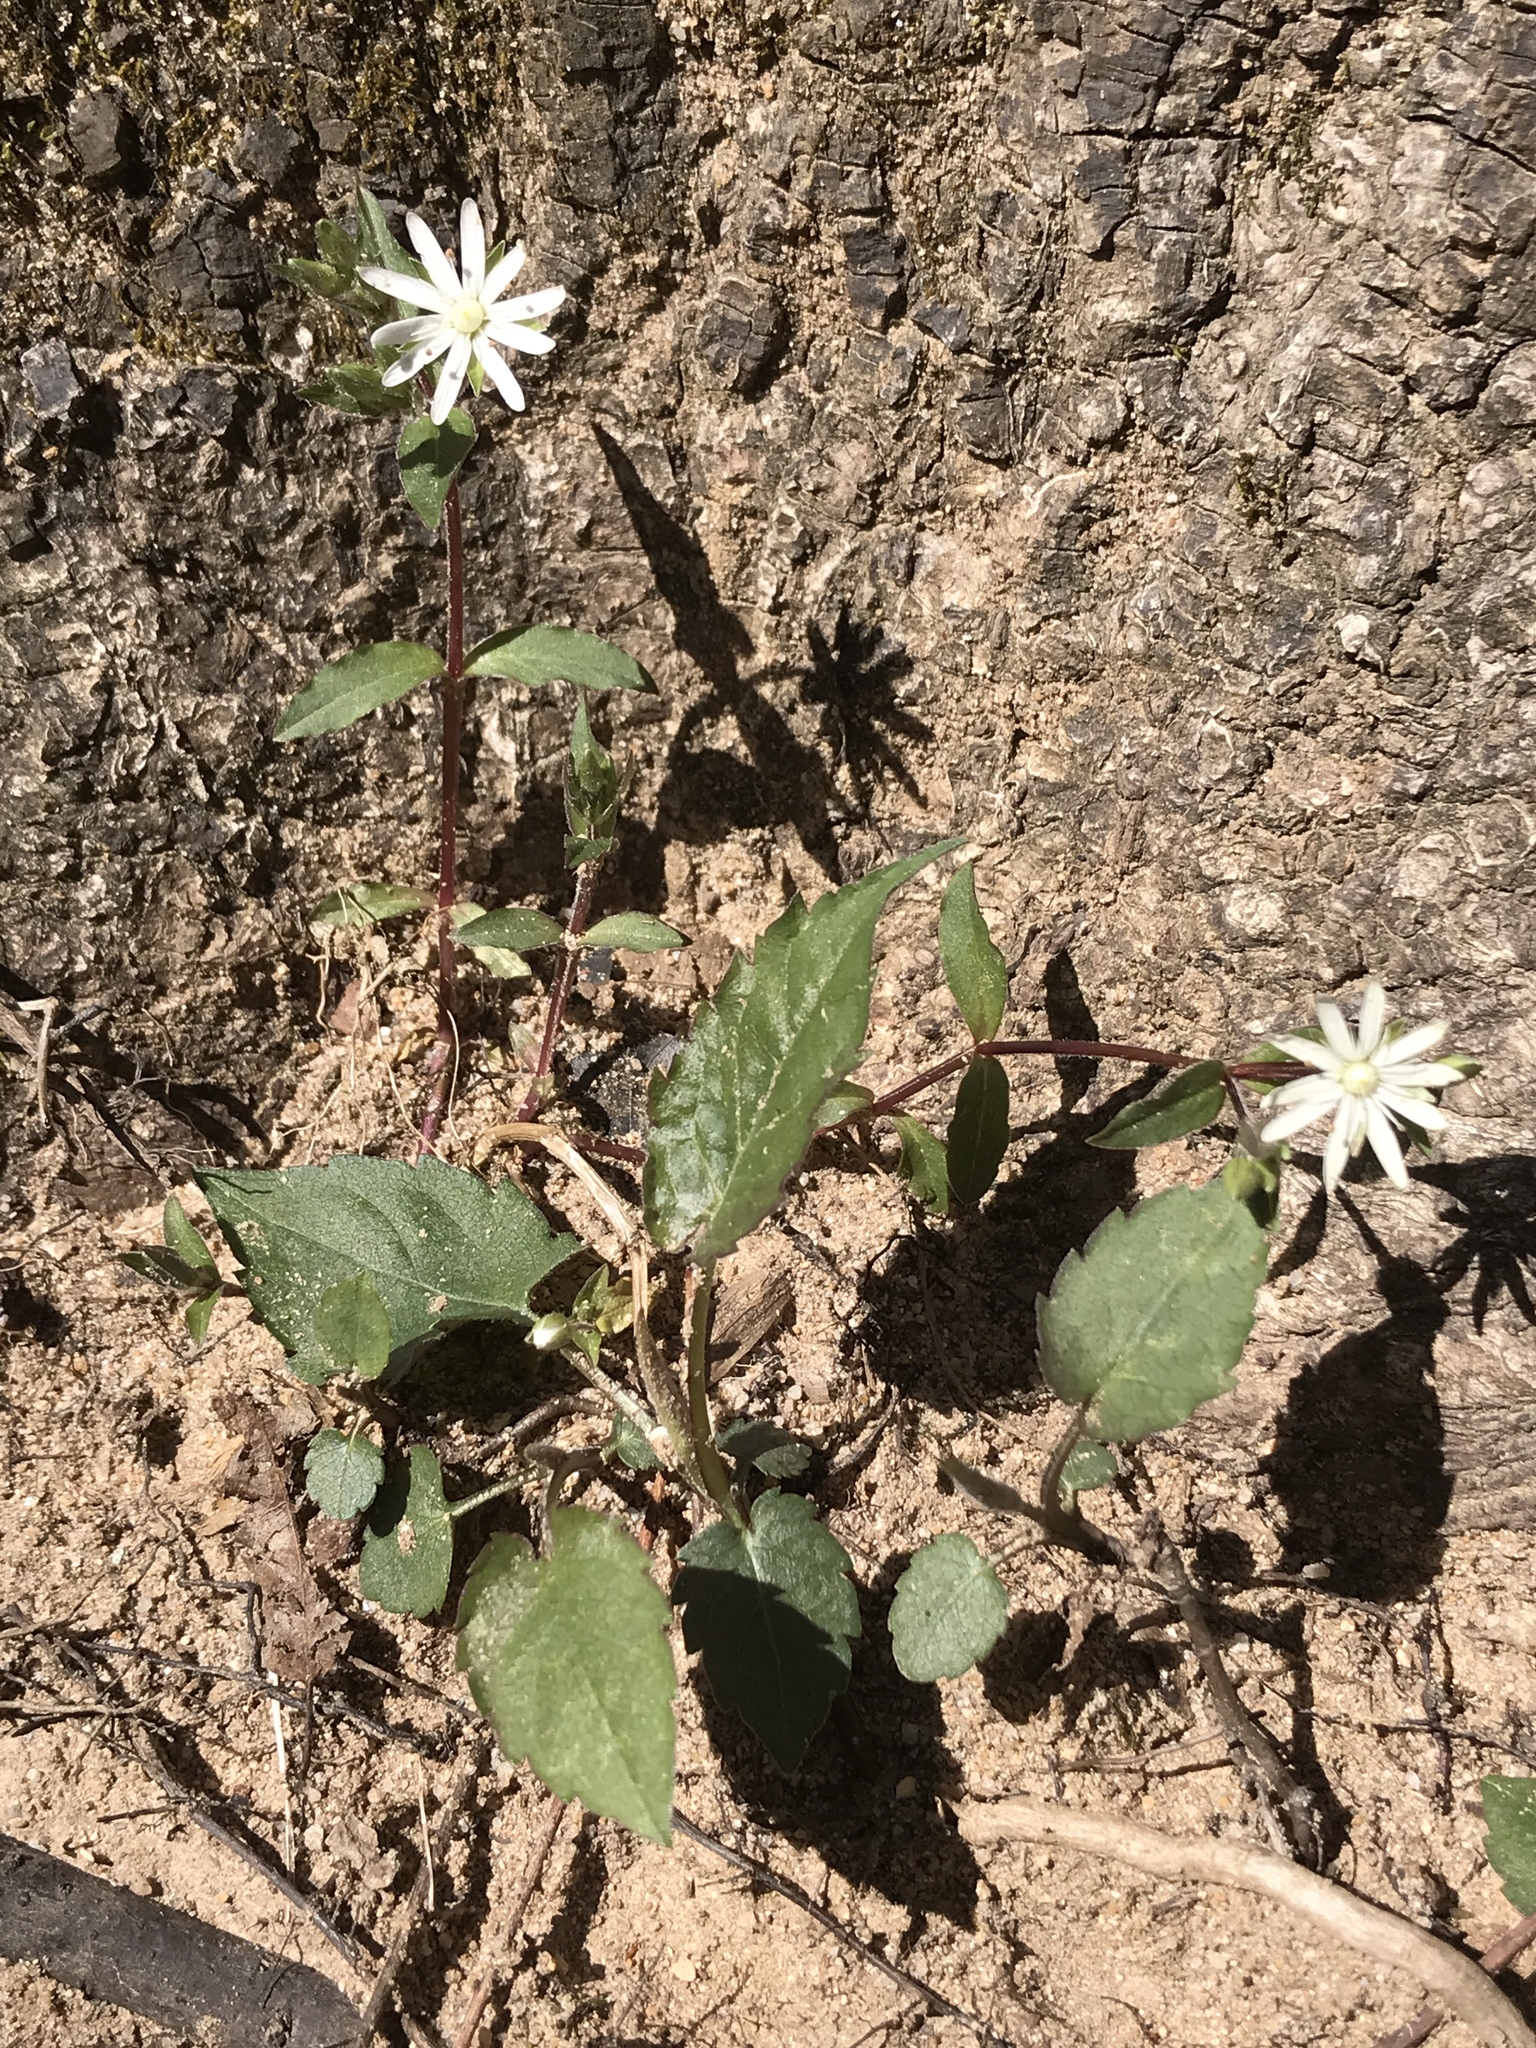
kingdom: Plantae
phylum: Tracheophyta
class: Magnoliopsida
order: Caryophyllales
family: Caryophyllaceae
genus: Stellaria
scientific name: Stellaria pubera
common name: Star chickweed
